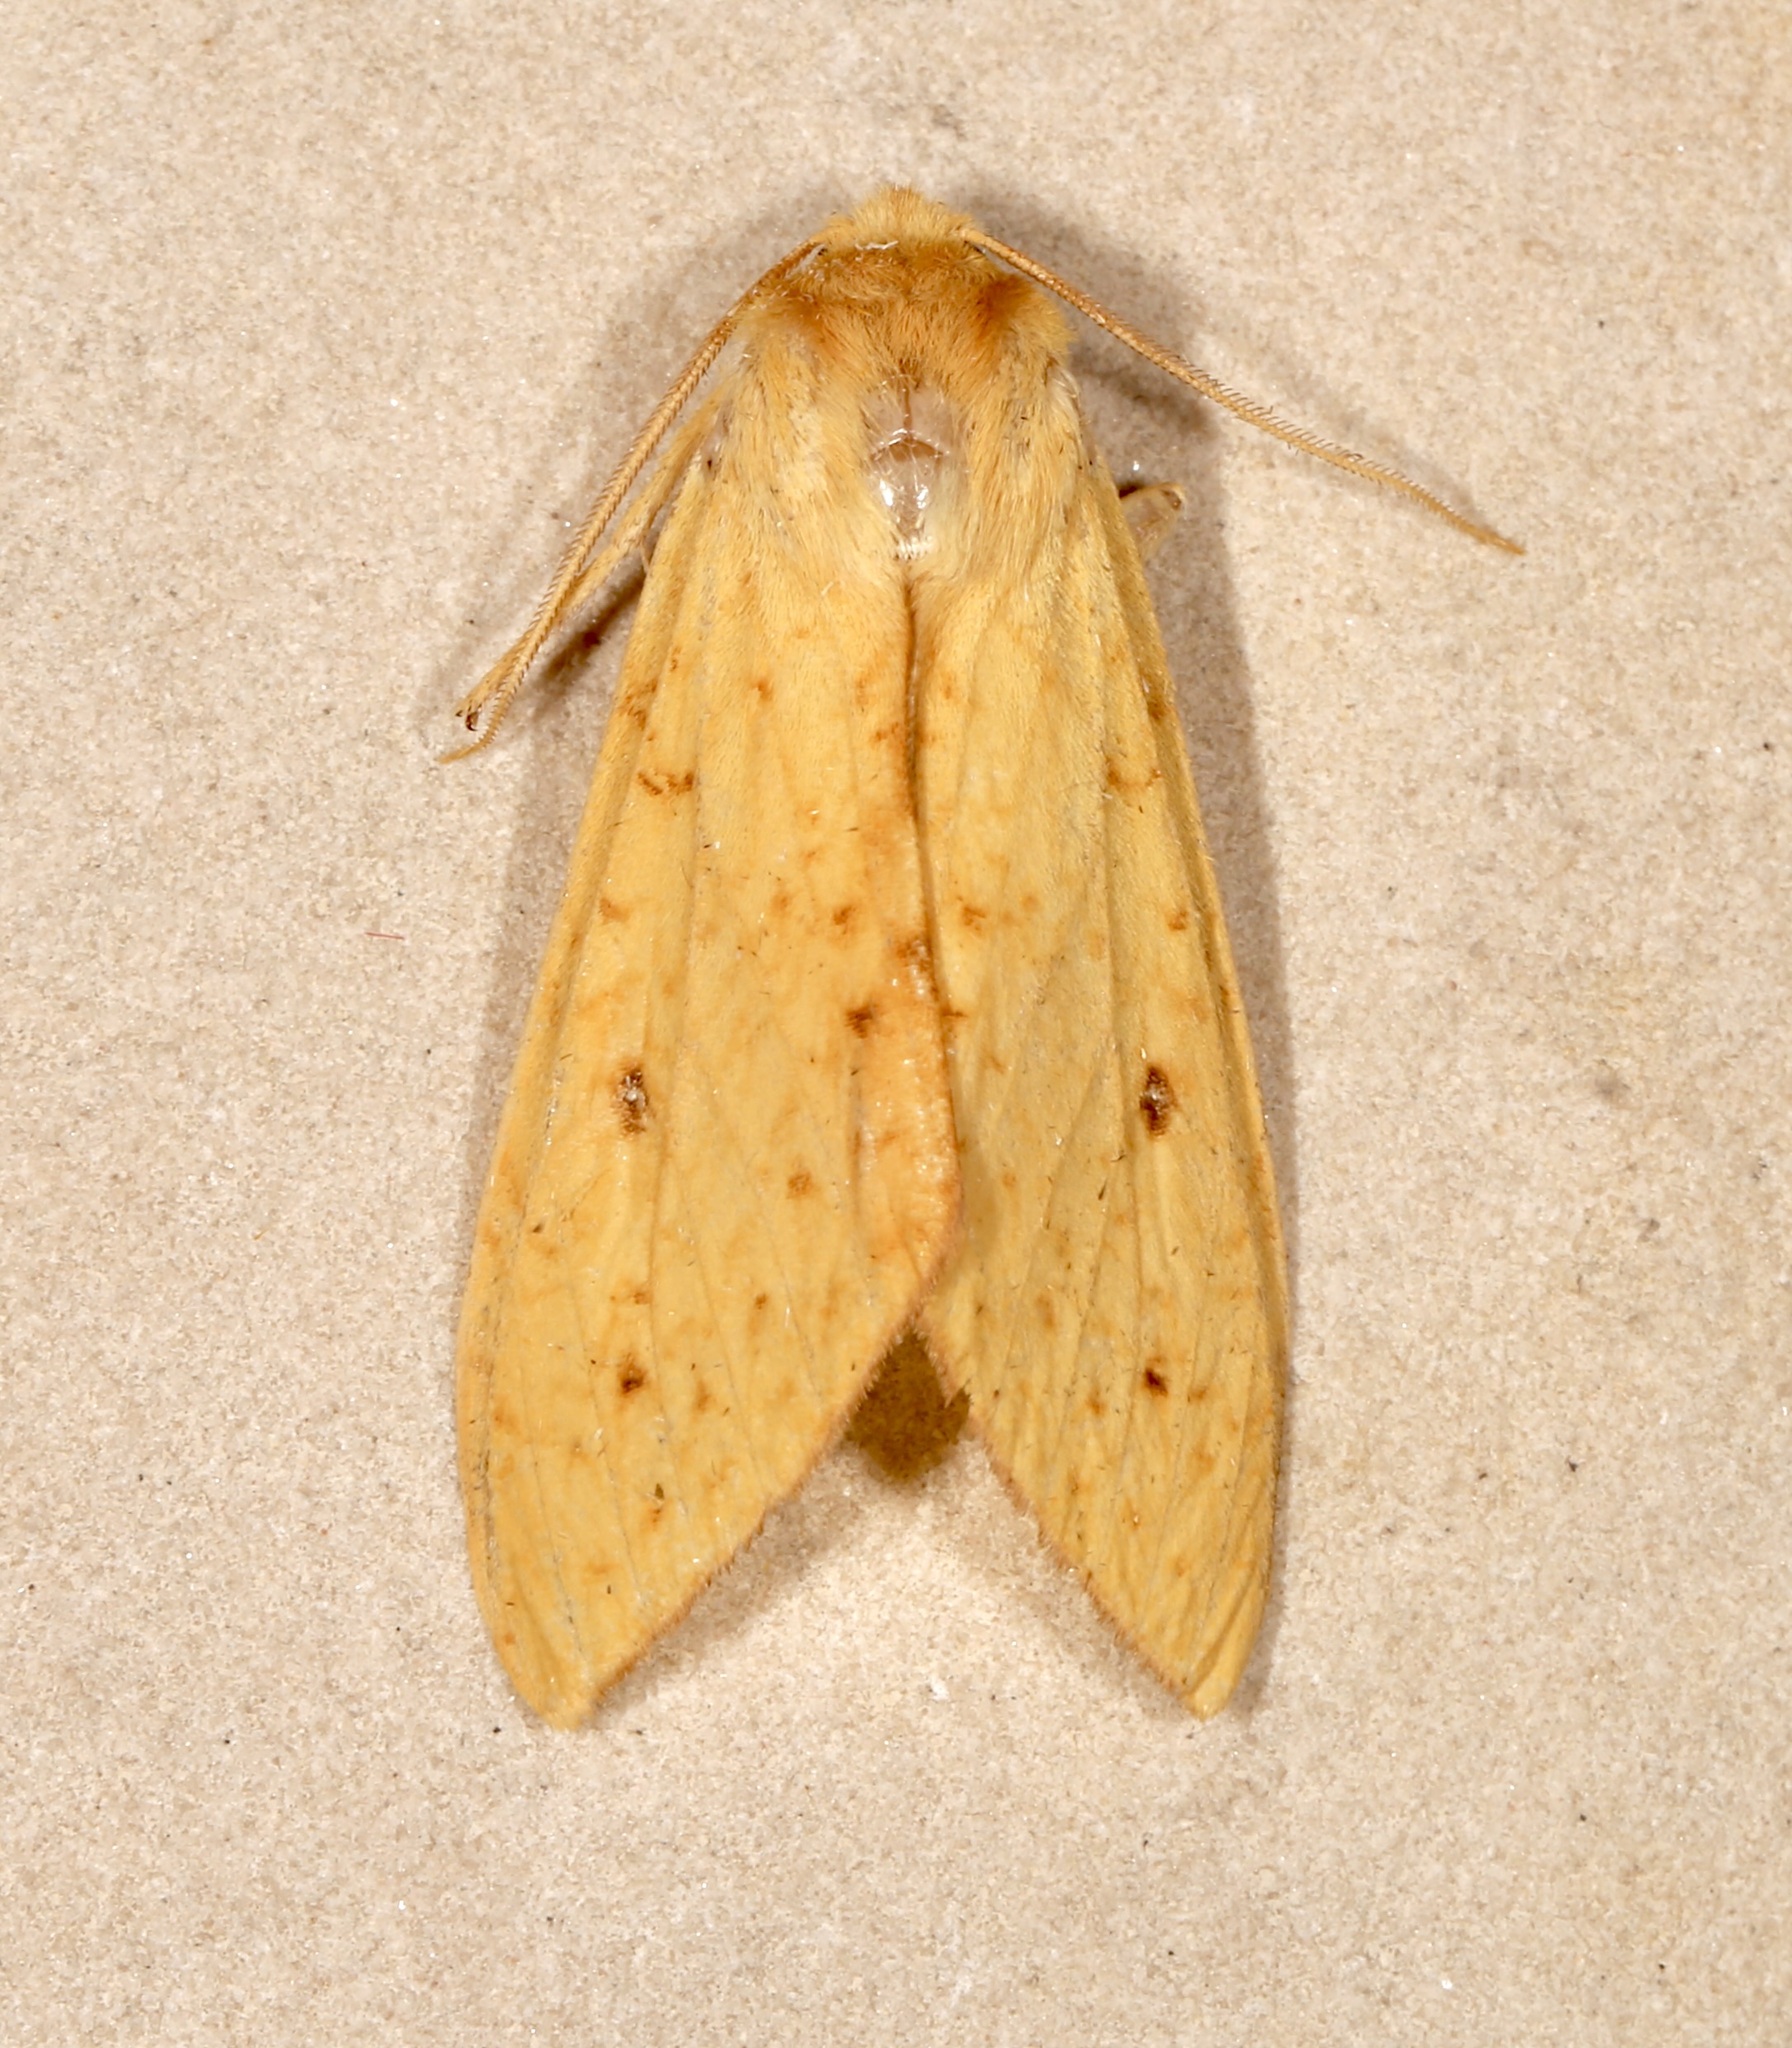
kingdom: Animalia
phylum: Arthropoda
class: Insecta
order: Lepidoptera
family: Erebidae
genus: Lophocampa
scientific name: Lophocampa pura
